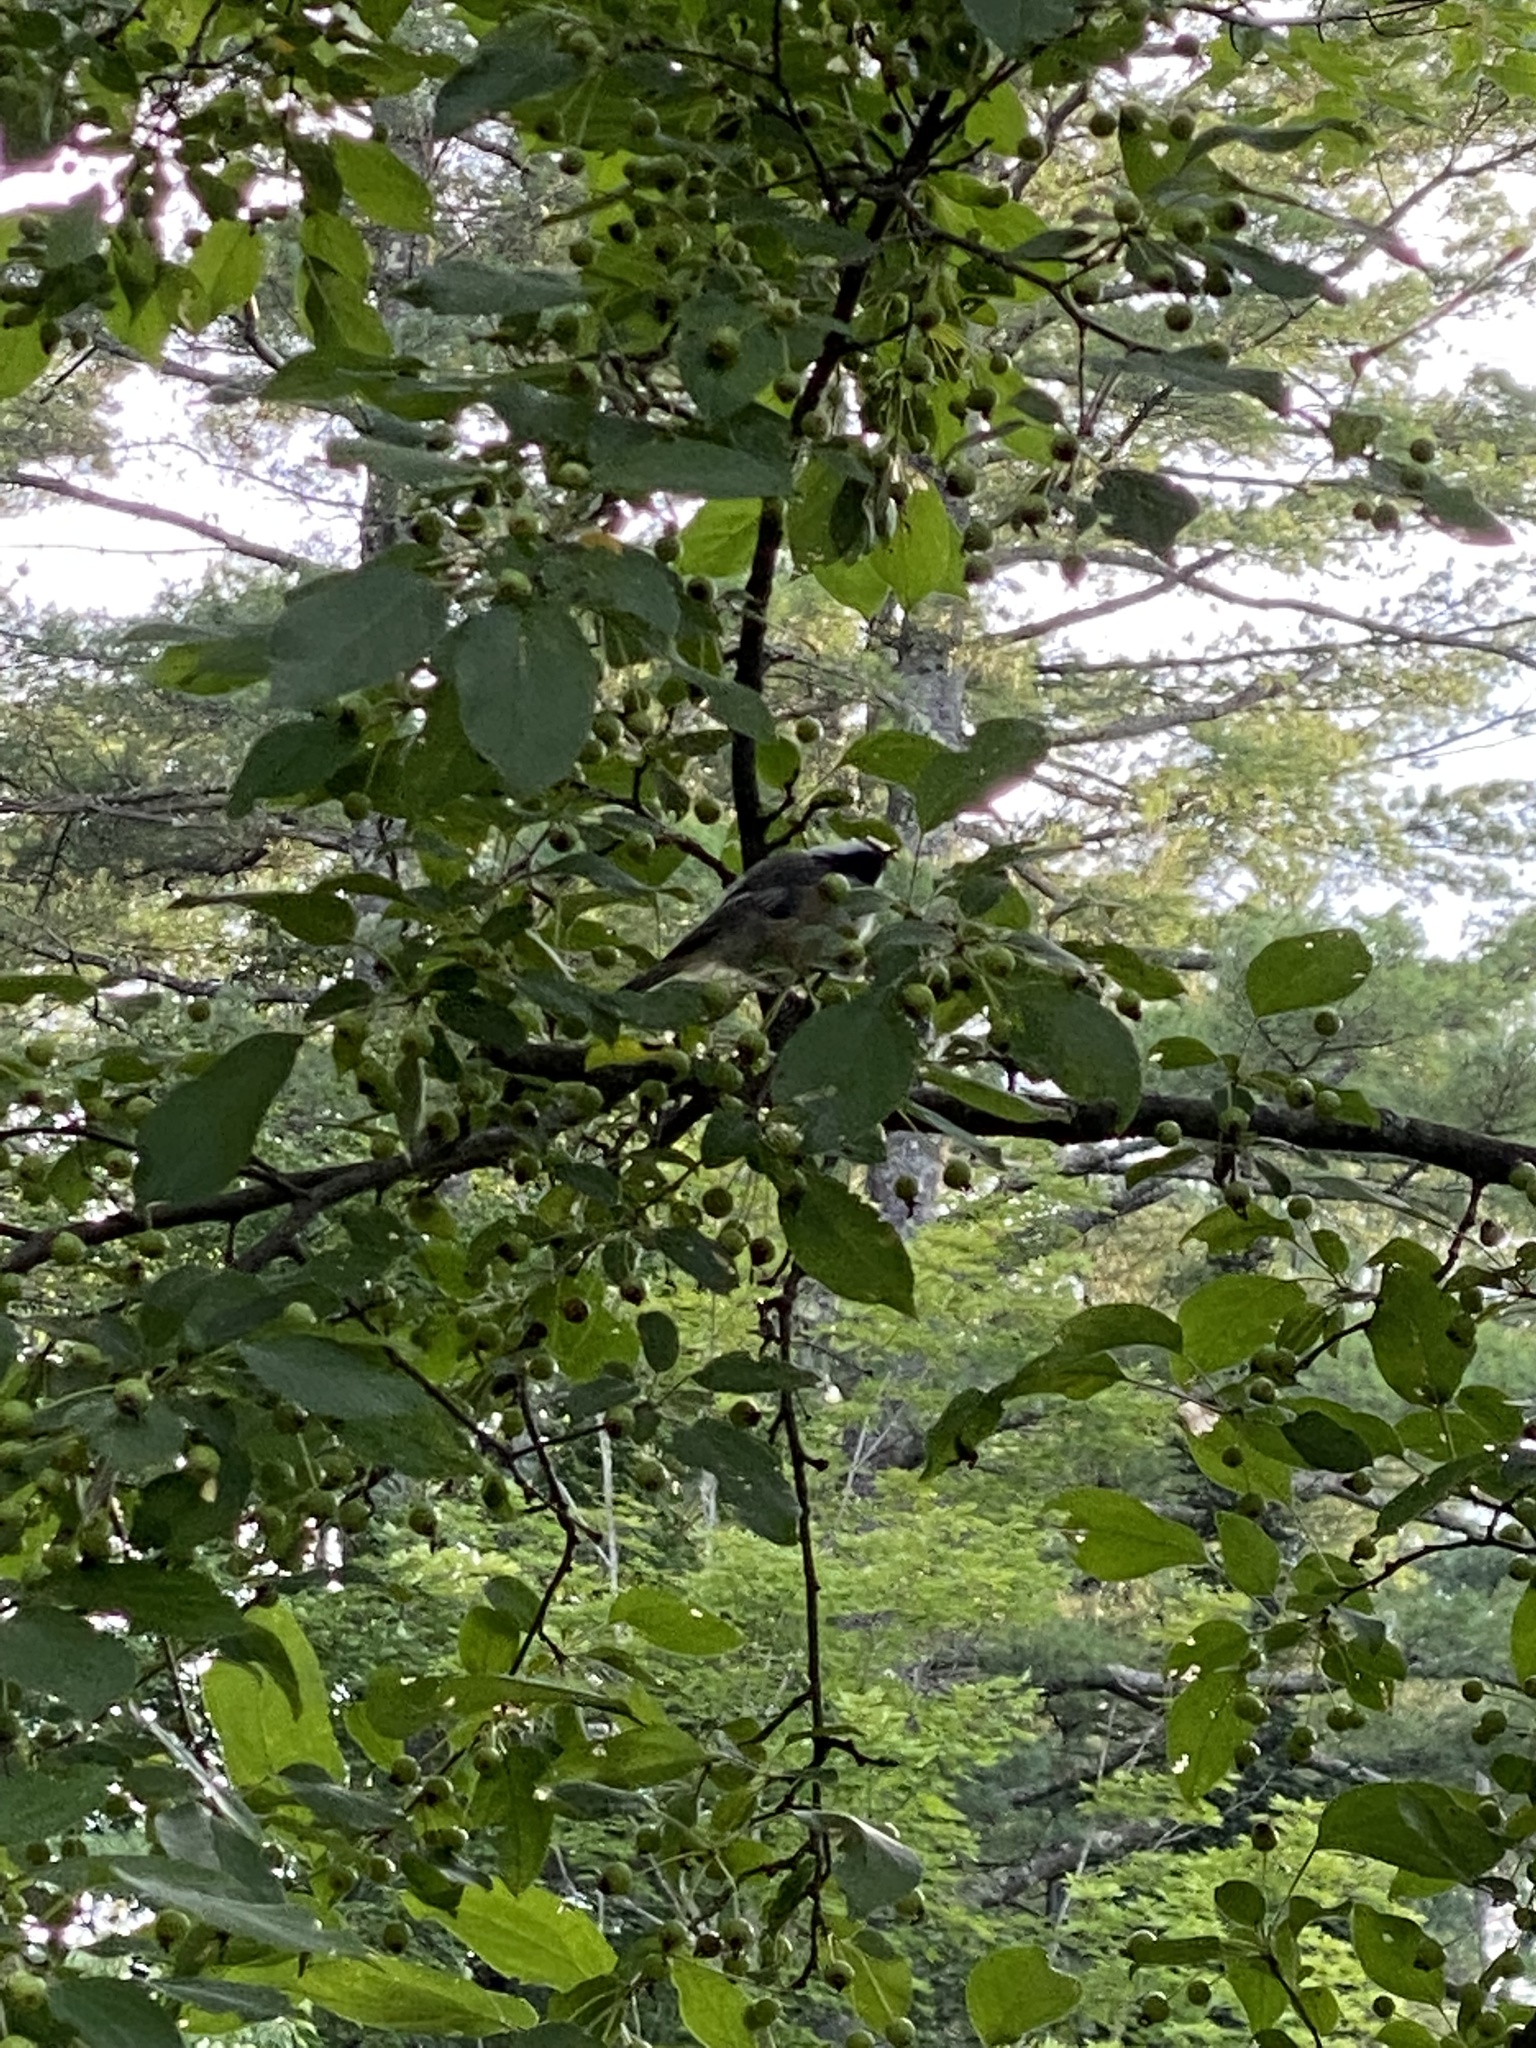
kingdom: Animalia
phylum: Chordata
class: Aves
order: Passeriformes
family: Paridae
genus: Poecile
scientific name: Poecile atricapillus
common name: Black-capped chickadee
